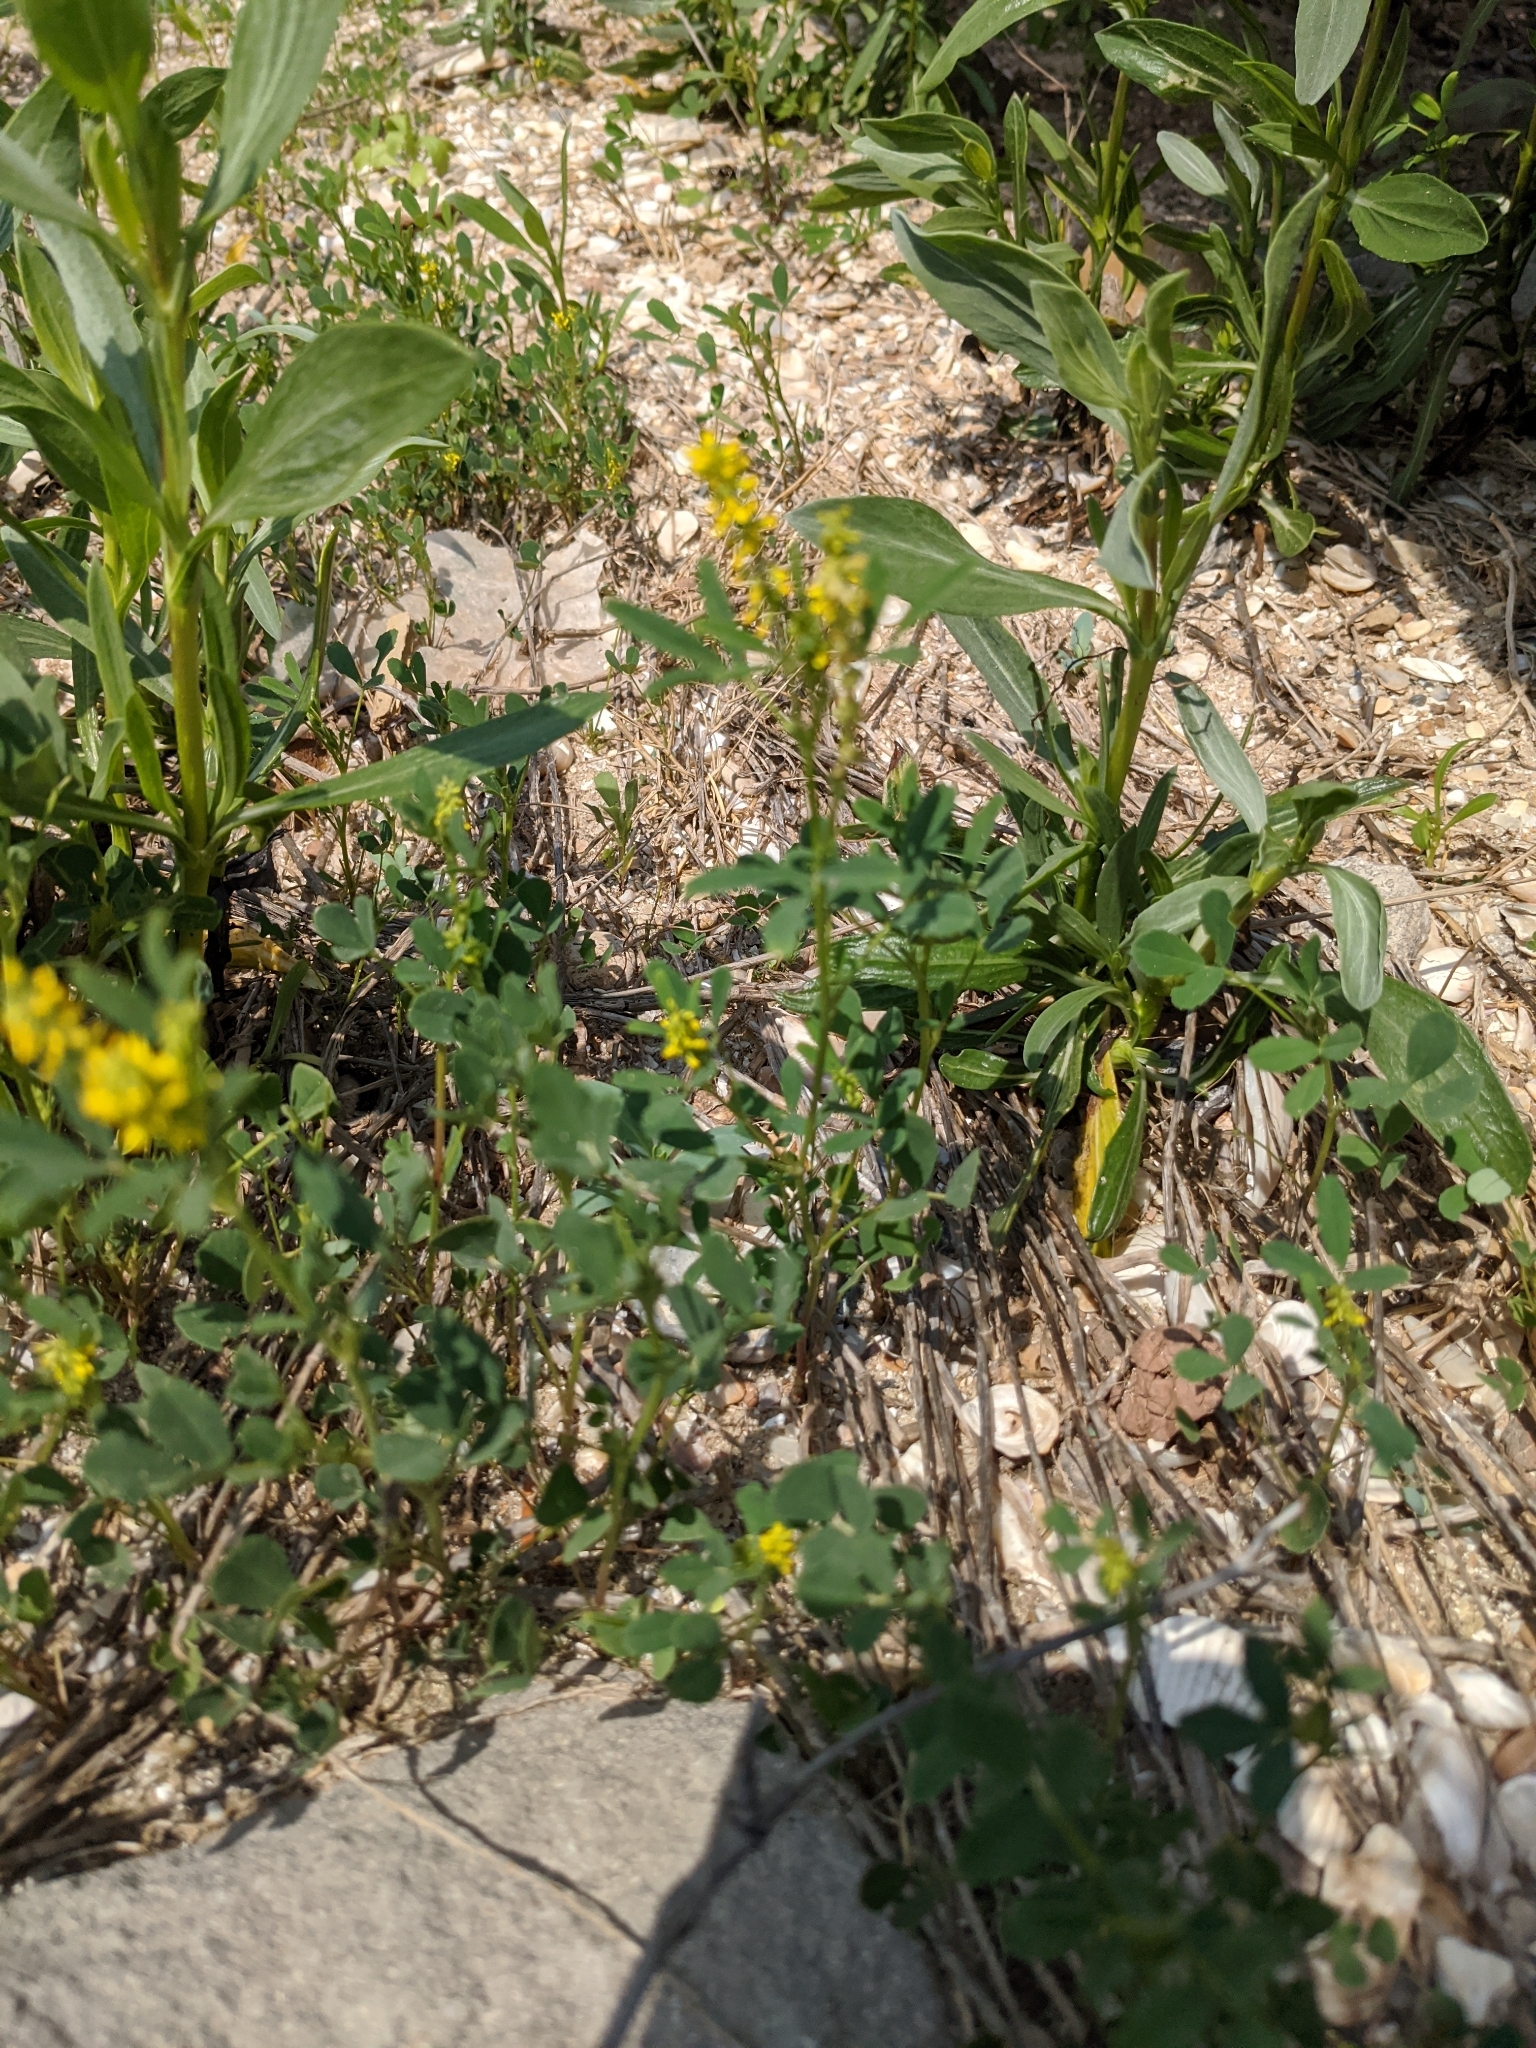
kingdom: Plantae
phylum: Tracheophyta
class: Magnoliopsida
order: Fabales
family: Fabaceae
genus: Melilotus
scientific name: Melilotus indicus
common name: Small melilot
